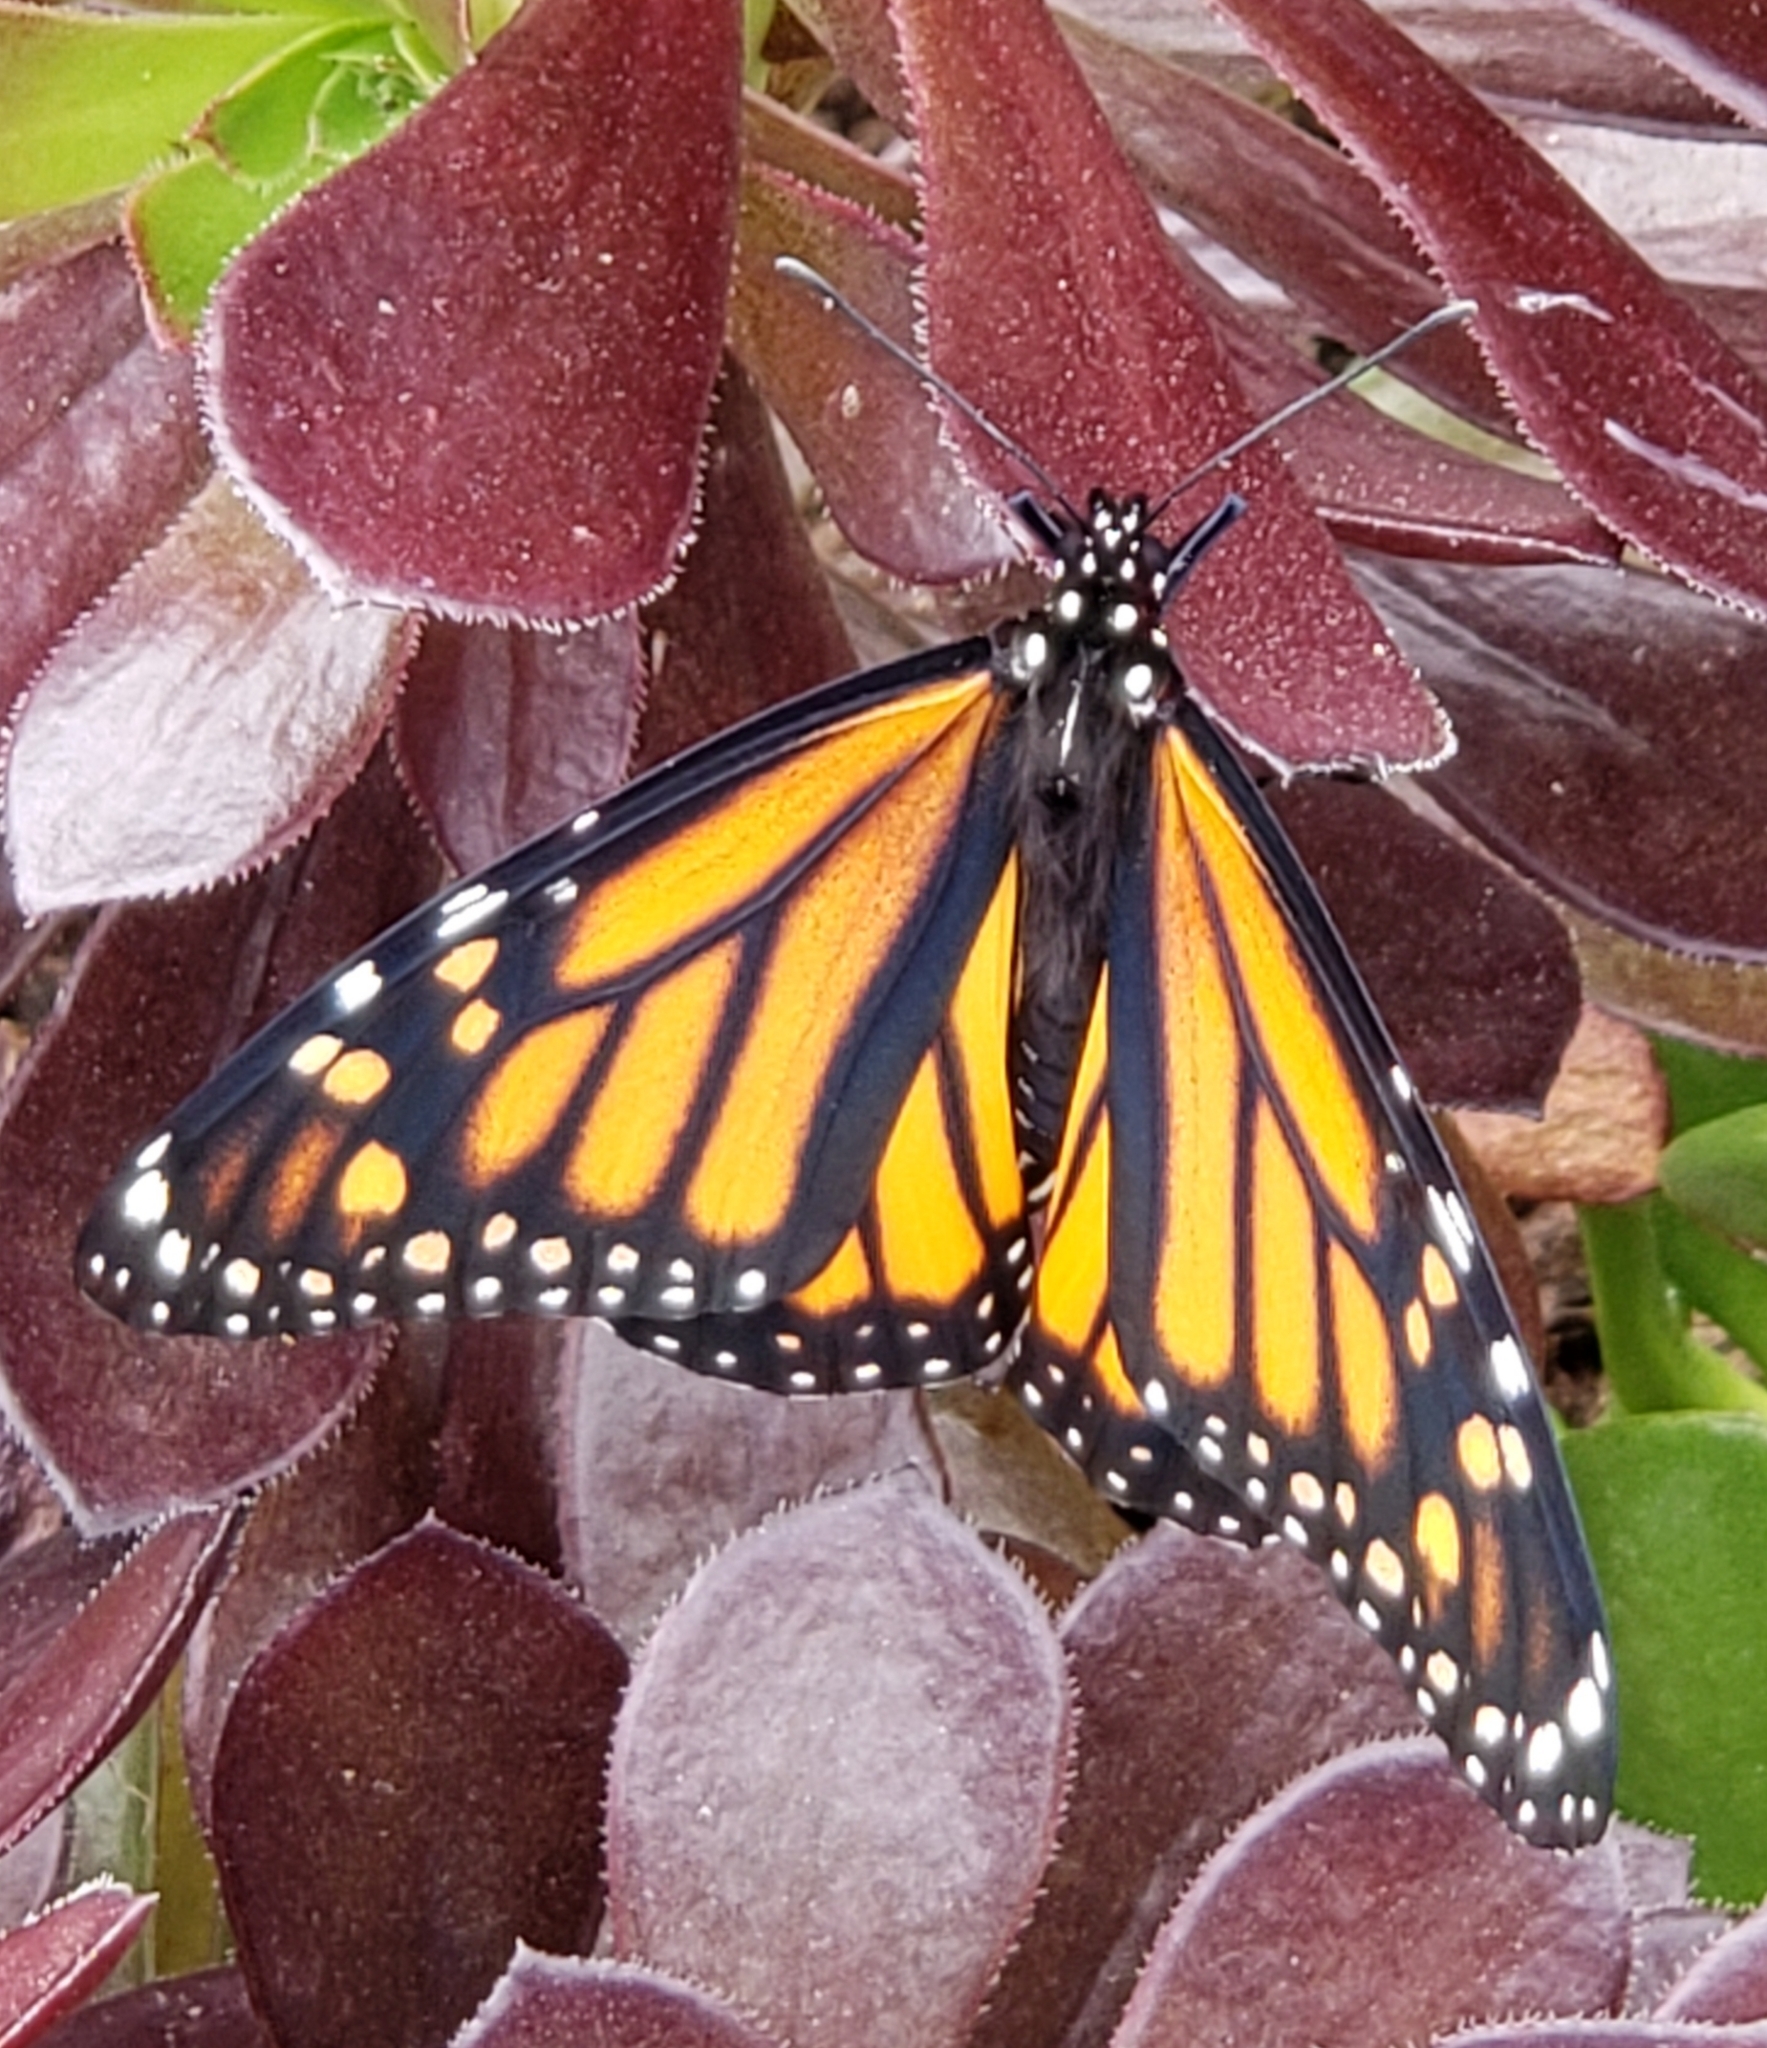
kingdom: Animalia
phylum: Arthropoda
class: Insecta
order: Lepidoptera
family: Nymphalidae
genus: Danaus
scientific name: Danaus plexippus
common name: Monarch
